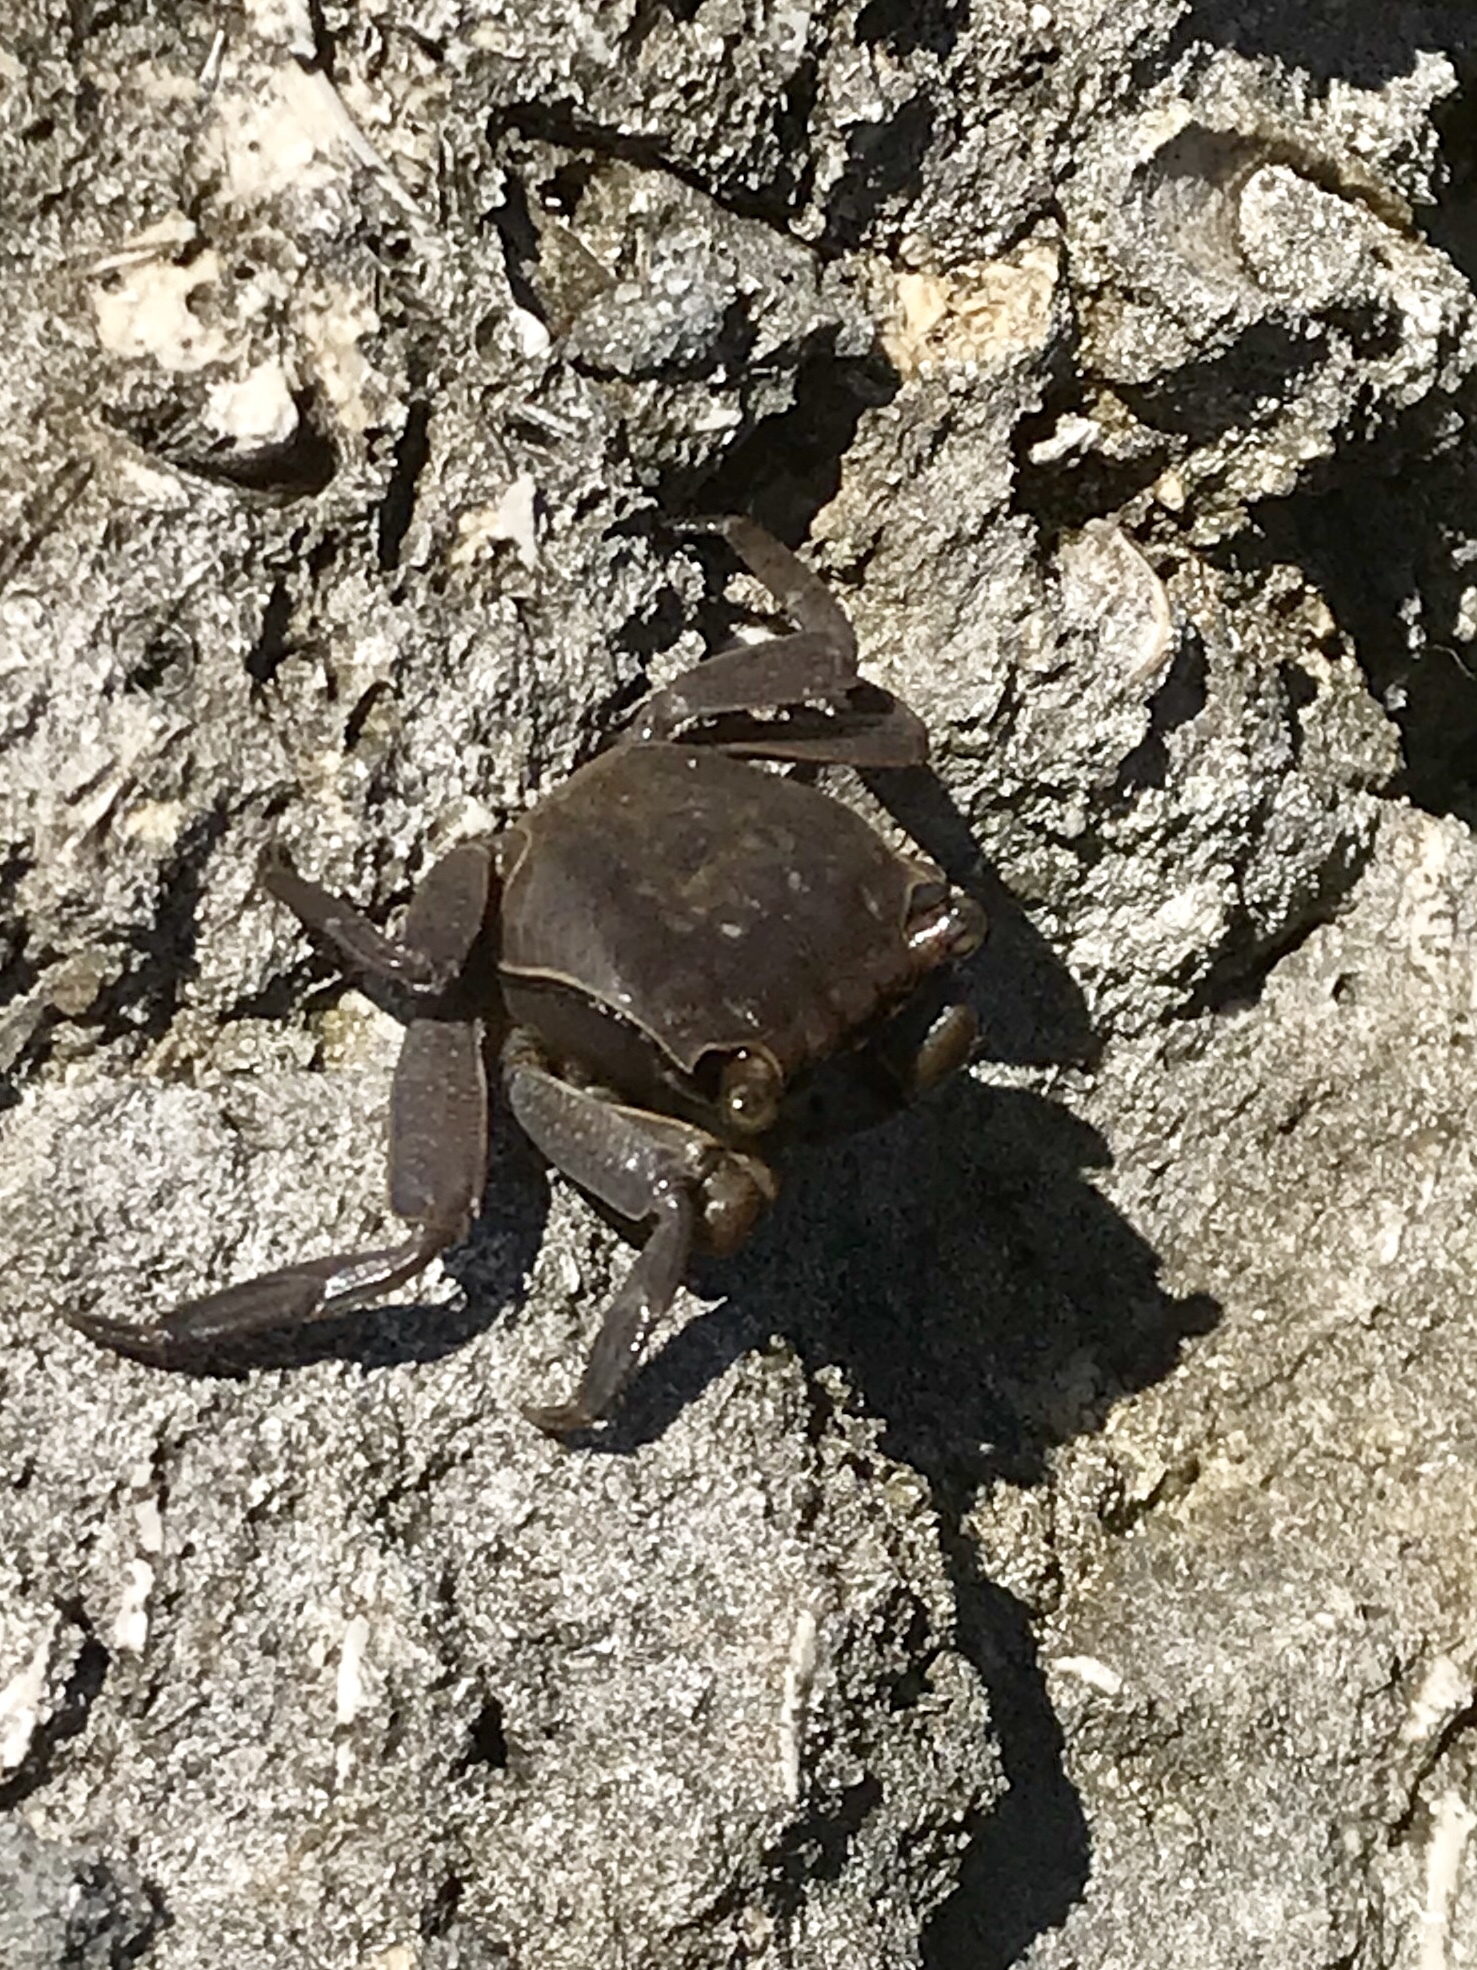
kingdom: Animalia
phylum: Arthropoda
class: Malacostraca
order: Decapoda
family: Sesarmidae
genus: Armases
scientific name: Armases cinereum
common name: Squareback marsh crab
